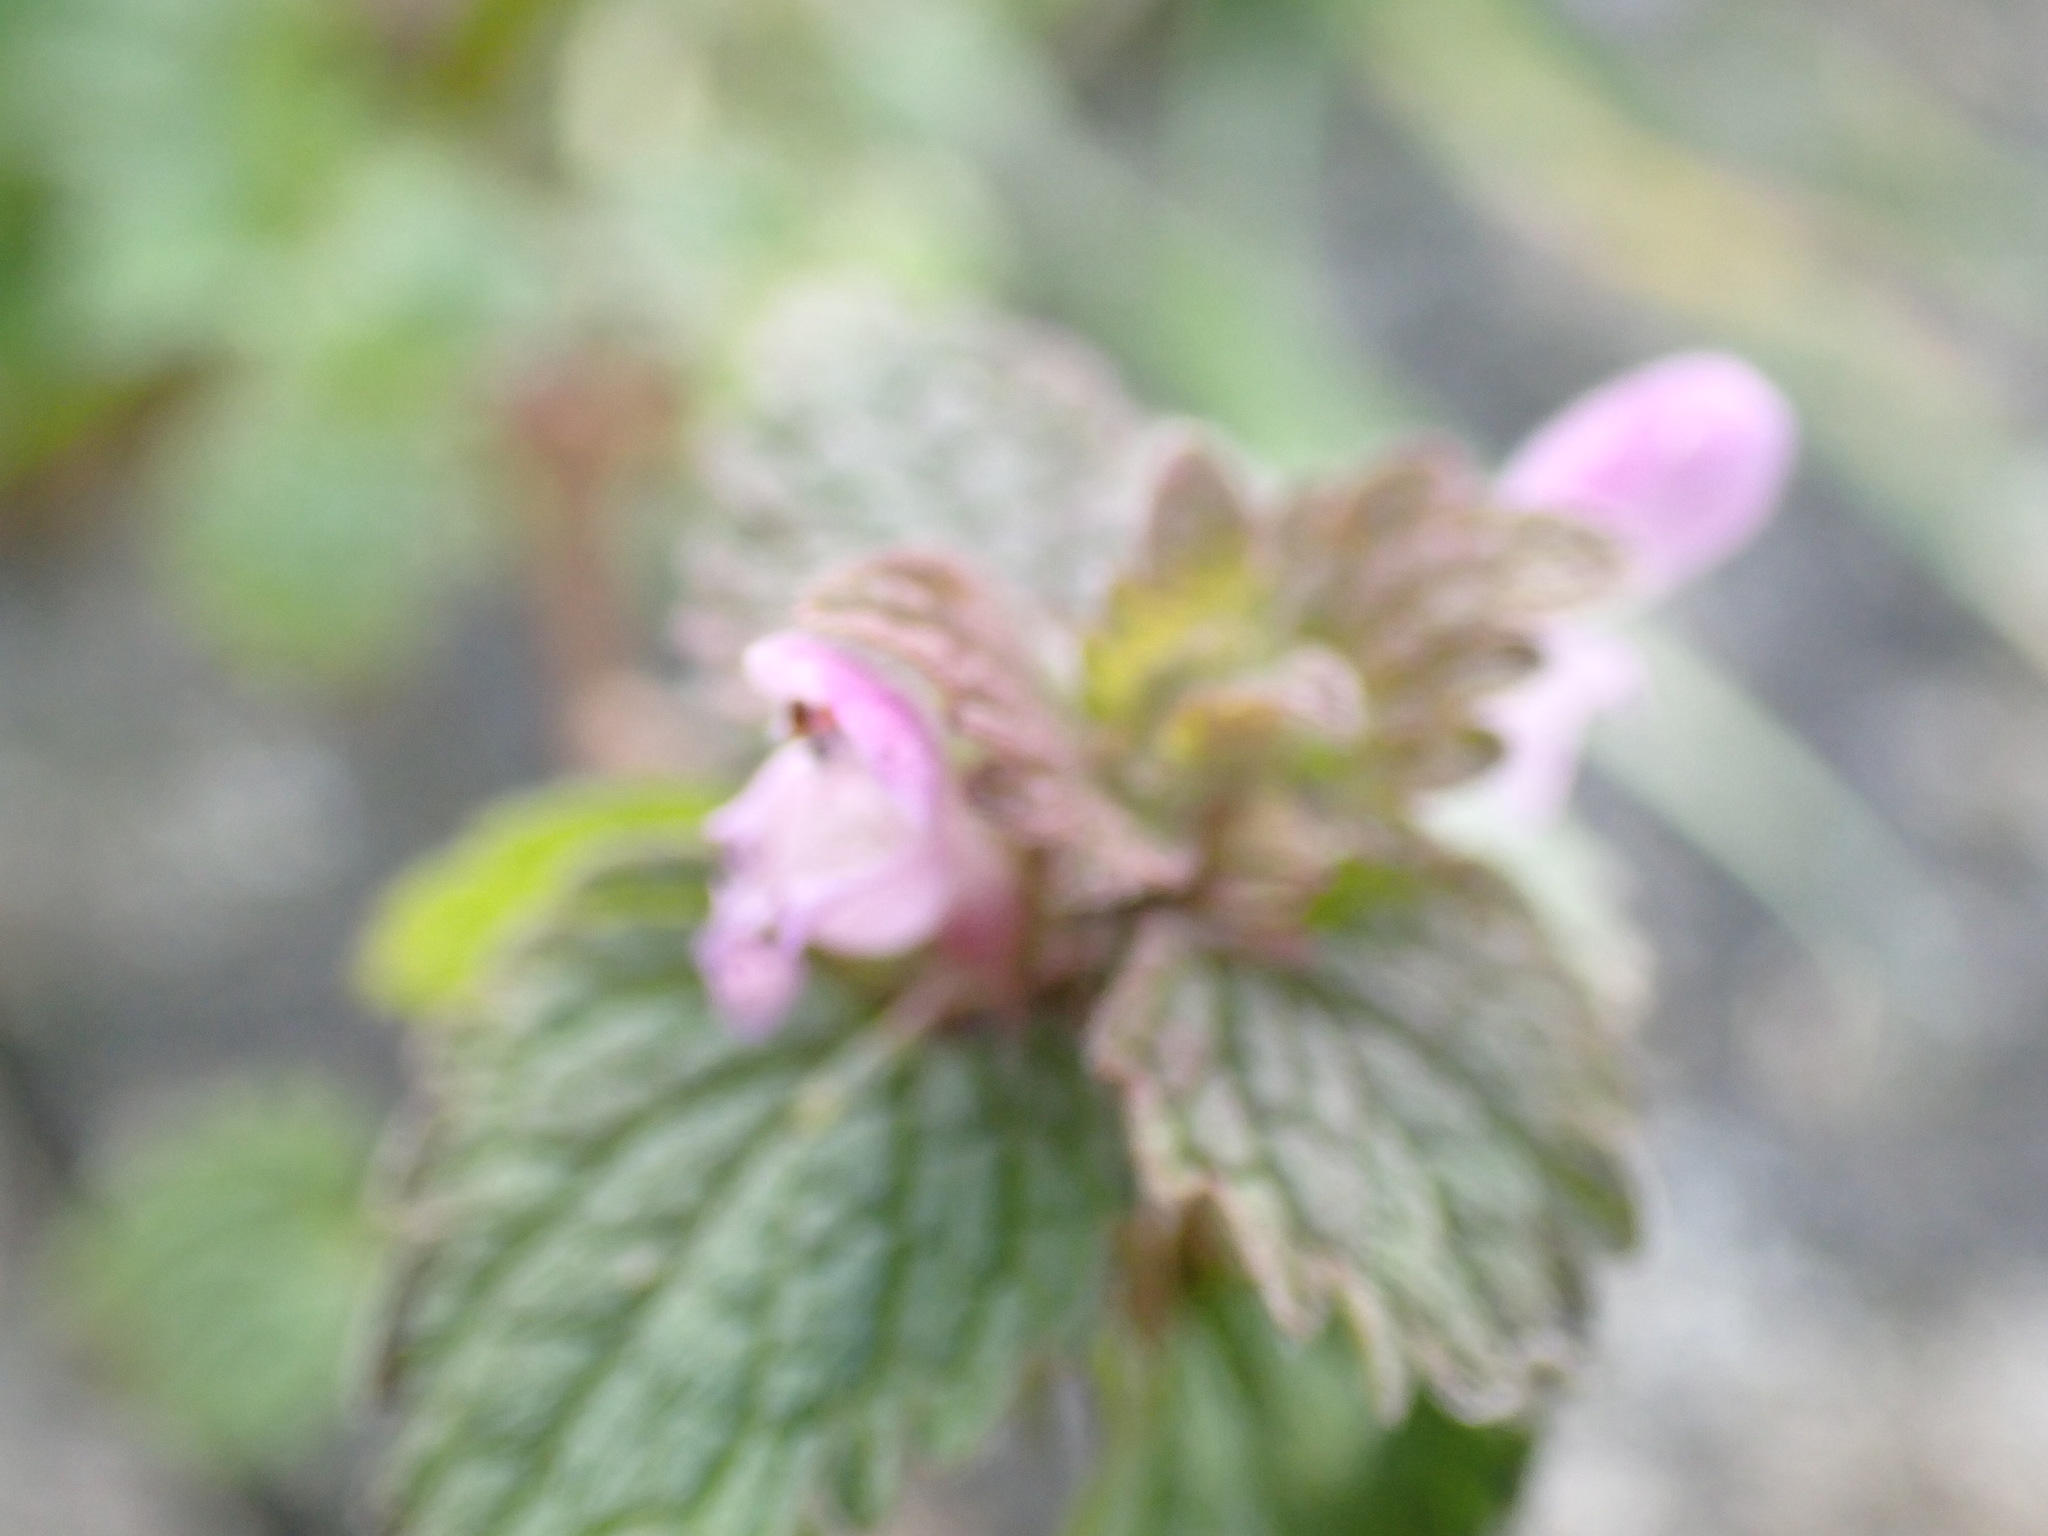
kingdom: Plantae
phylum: Tracheophyta
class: Magnoliopsida
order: Lamiales
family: Lamiaceae
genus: Lamium
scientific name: Lamium purpureum
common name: Red dead-nettle
